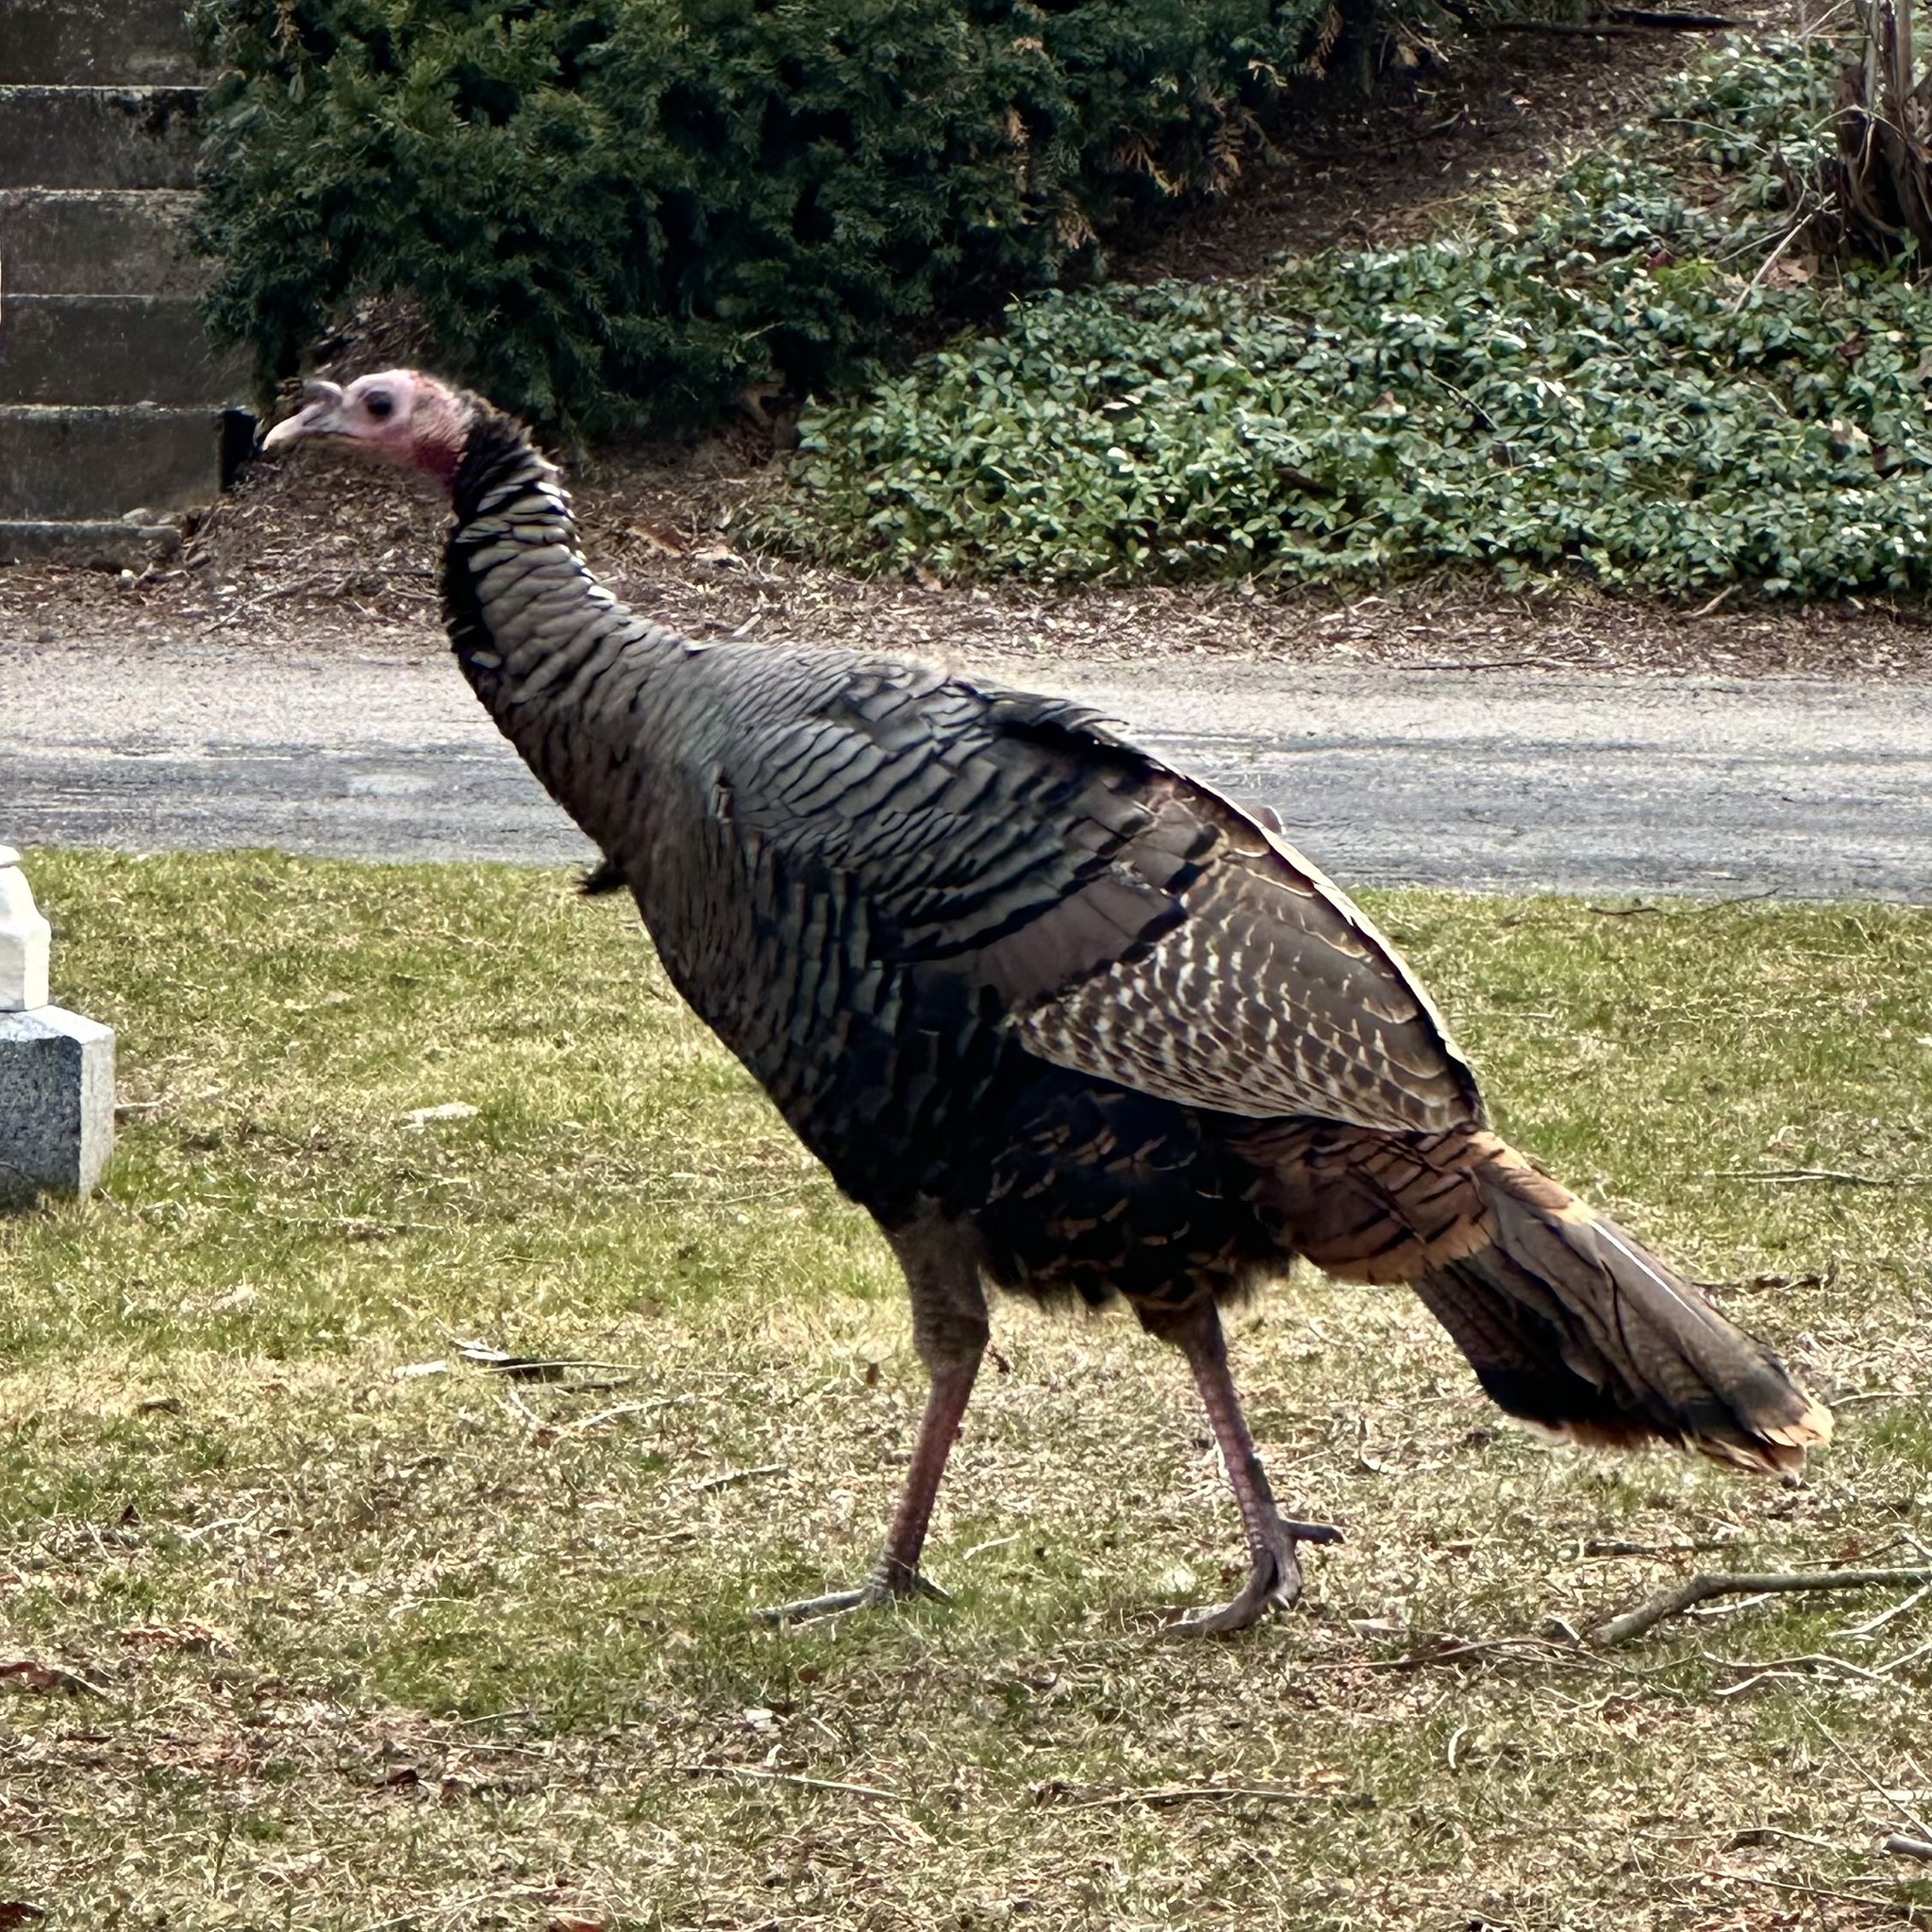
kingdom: Animalia
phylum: Chordata
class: Aves
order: Galliformes
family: Phasianidae
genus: Meleagris
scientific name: Meleagris gallopavo
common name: Wild turkey
